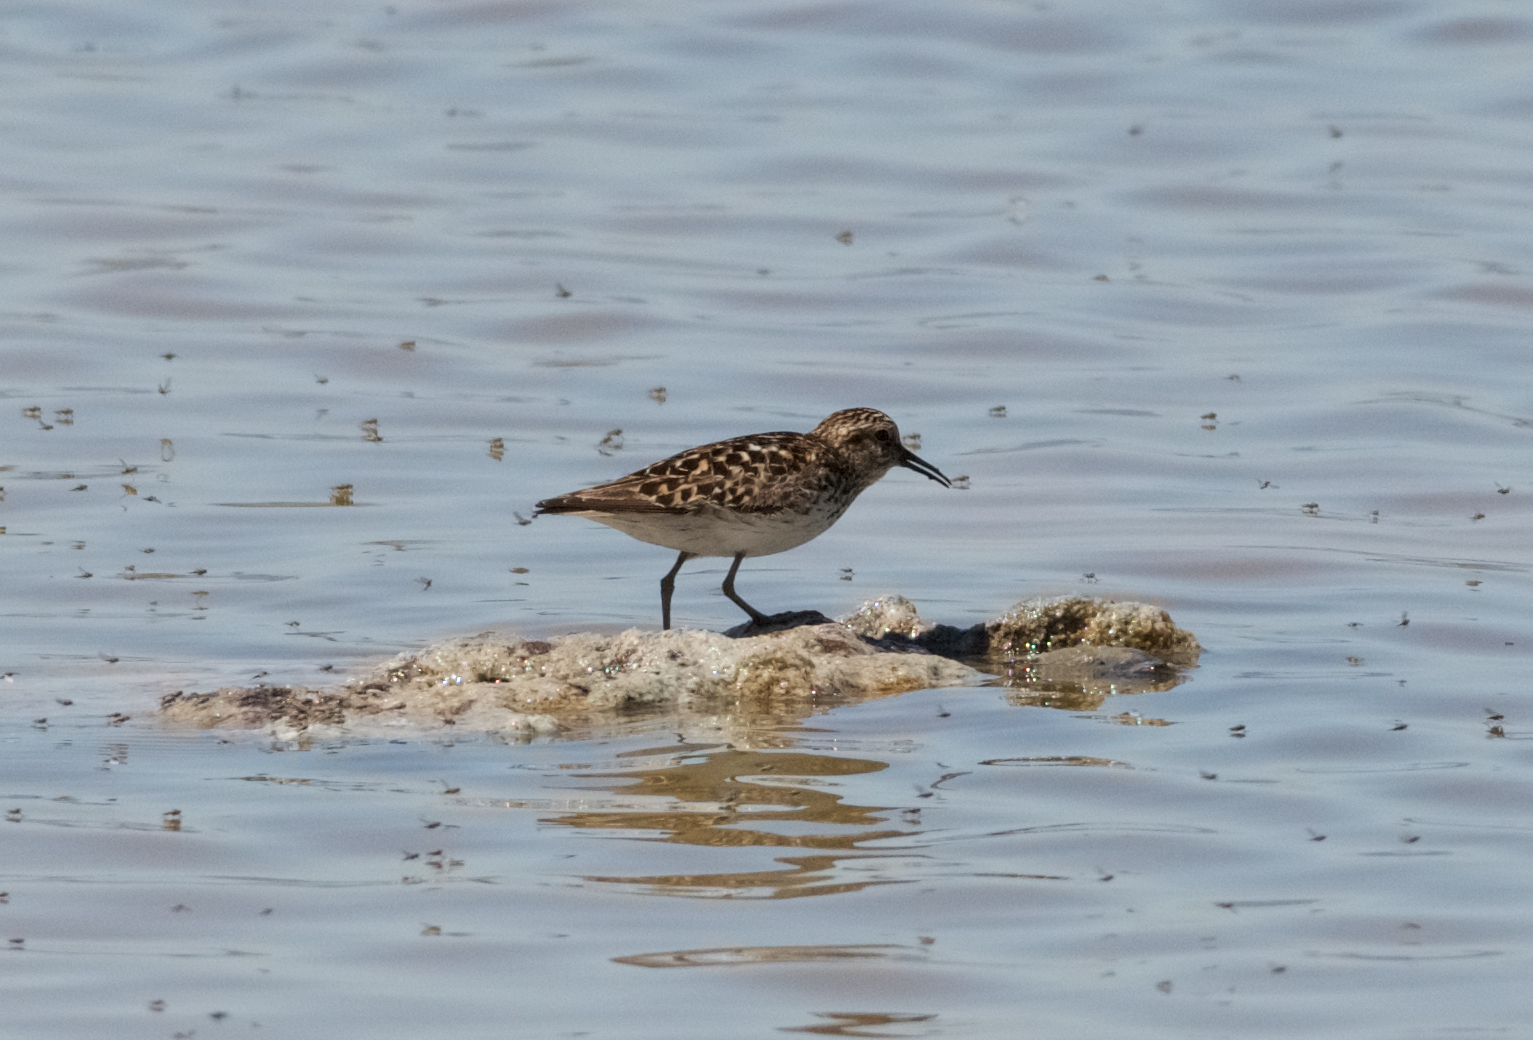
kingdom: Animalia
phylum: Chordata
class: Aves
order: Charadriiformes
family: Scolopacidae
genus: Calidris
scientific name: Calidris minutilla
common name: Least sandpiper
